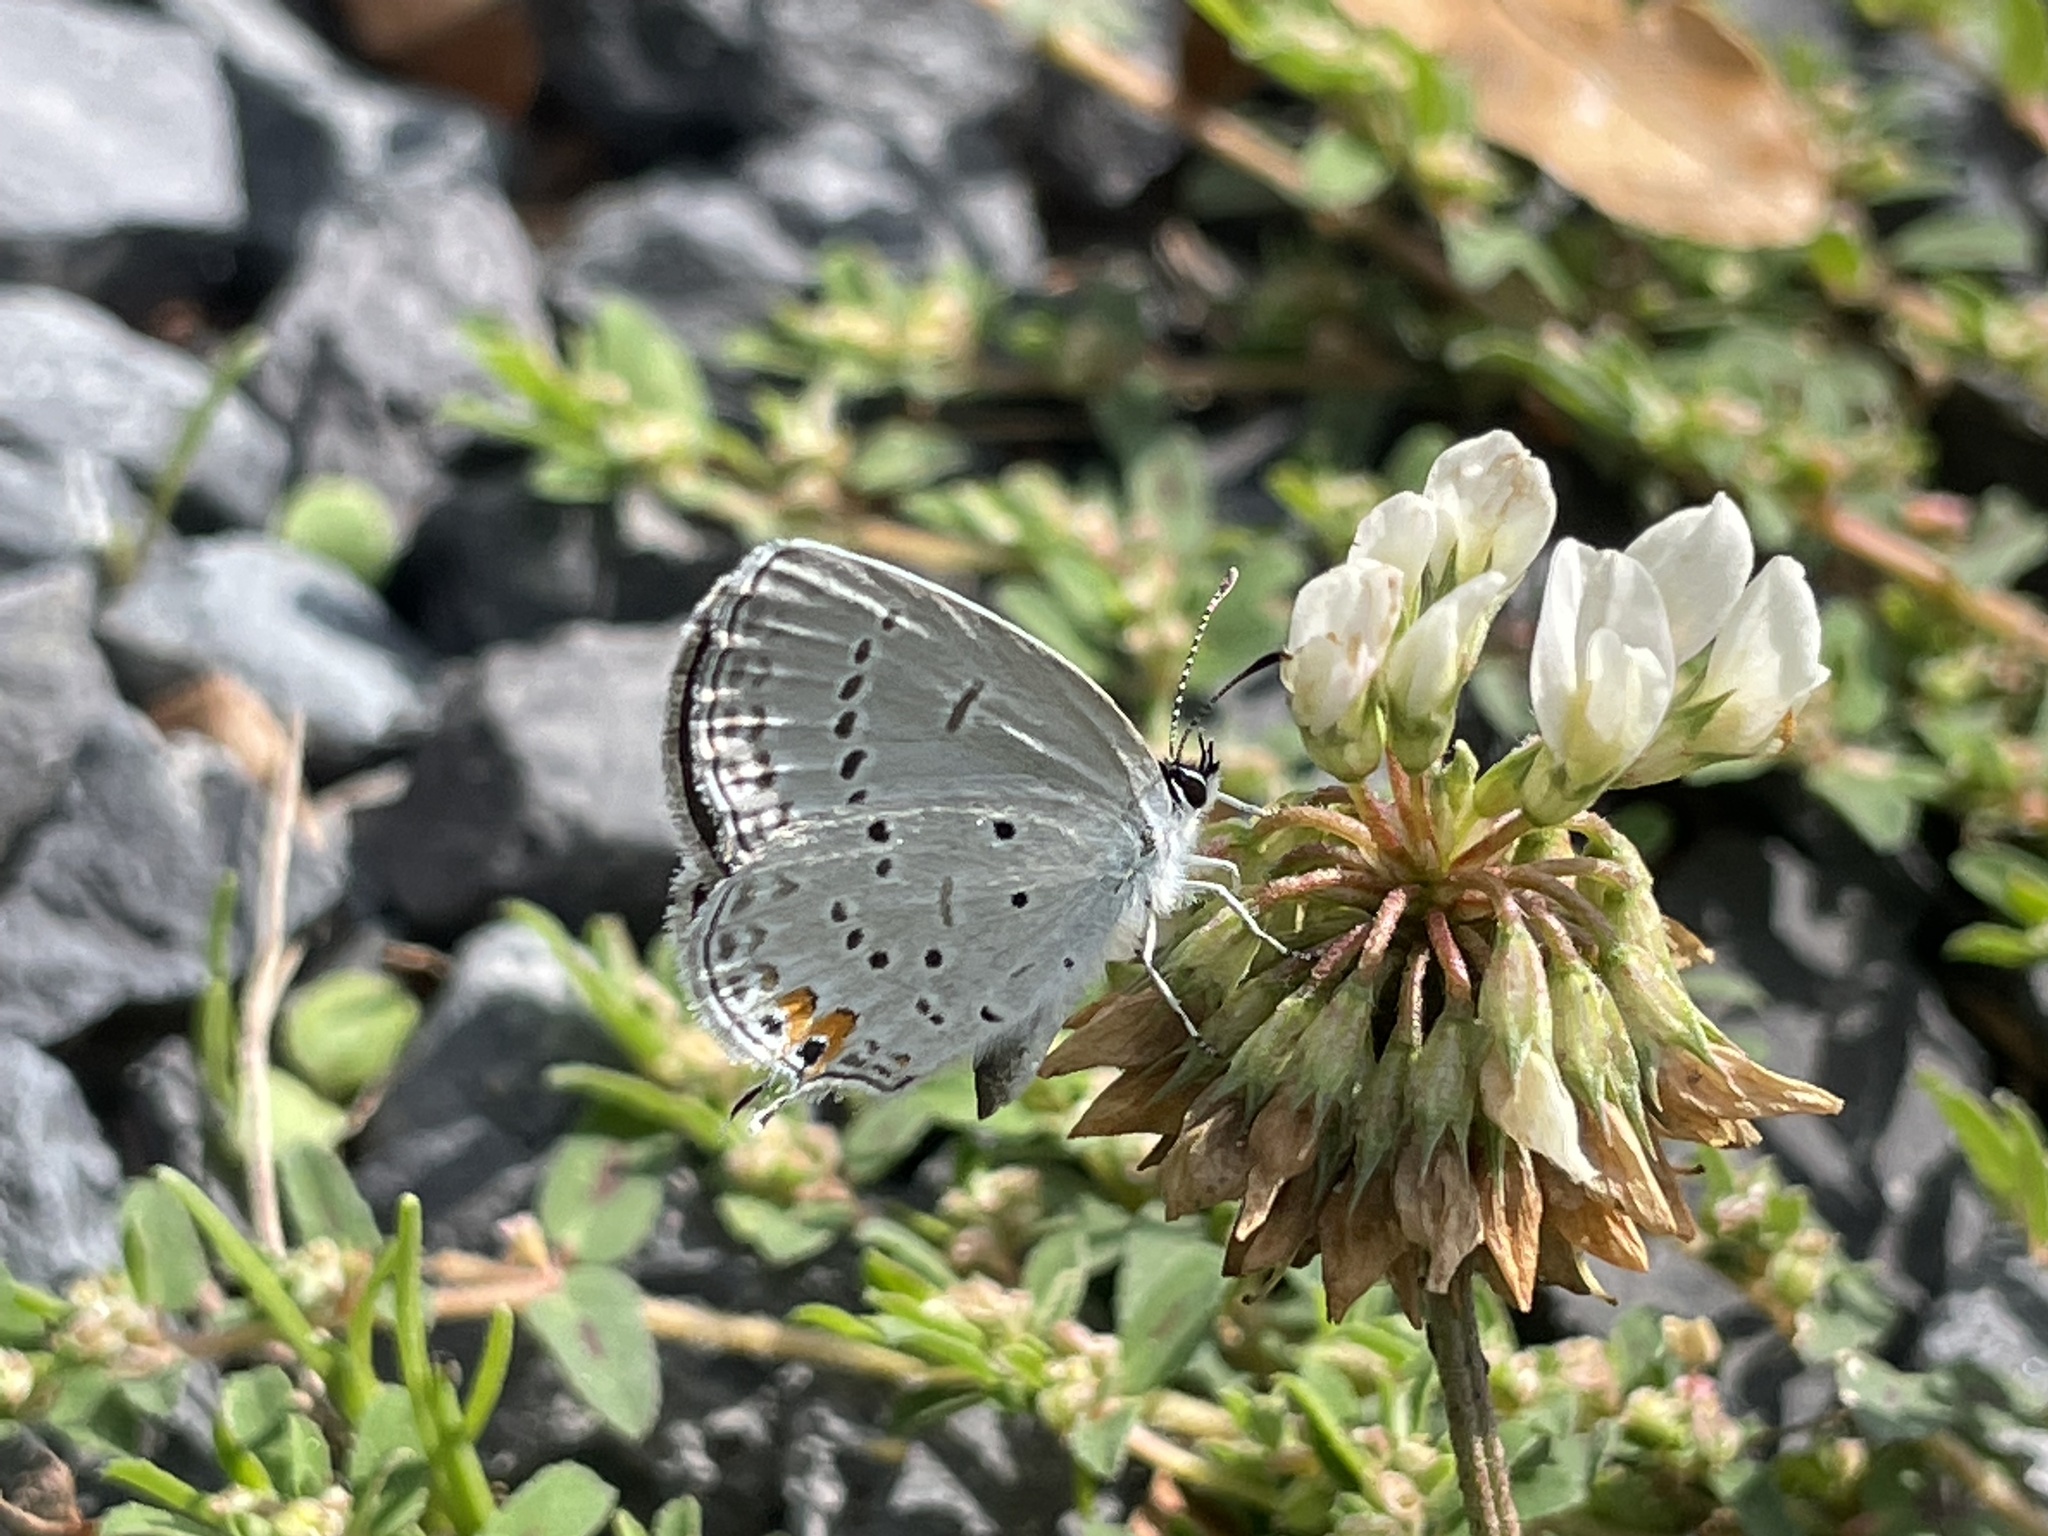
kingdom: Animalia
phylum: Arthropoda
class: Insecta
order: Lepidoptera
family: Lycaenidae
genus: Elkalyce
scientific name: Elkalyce comyntas
